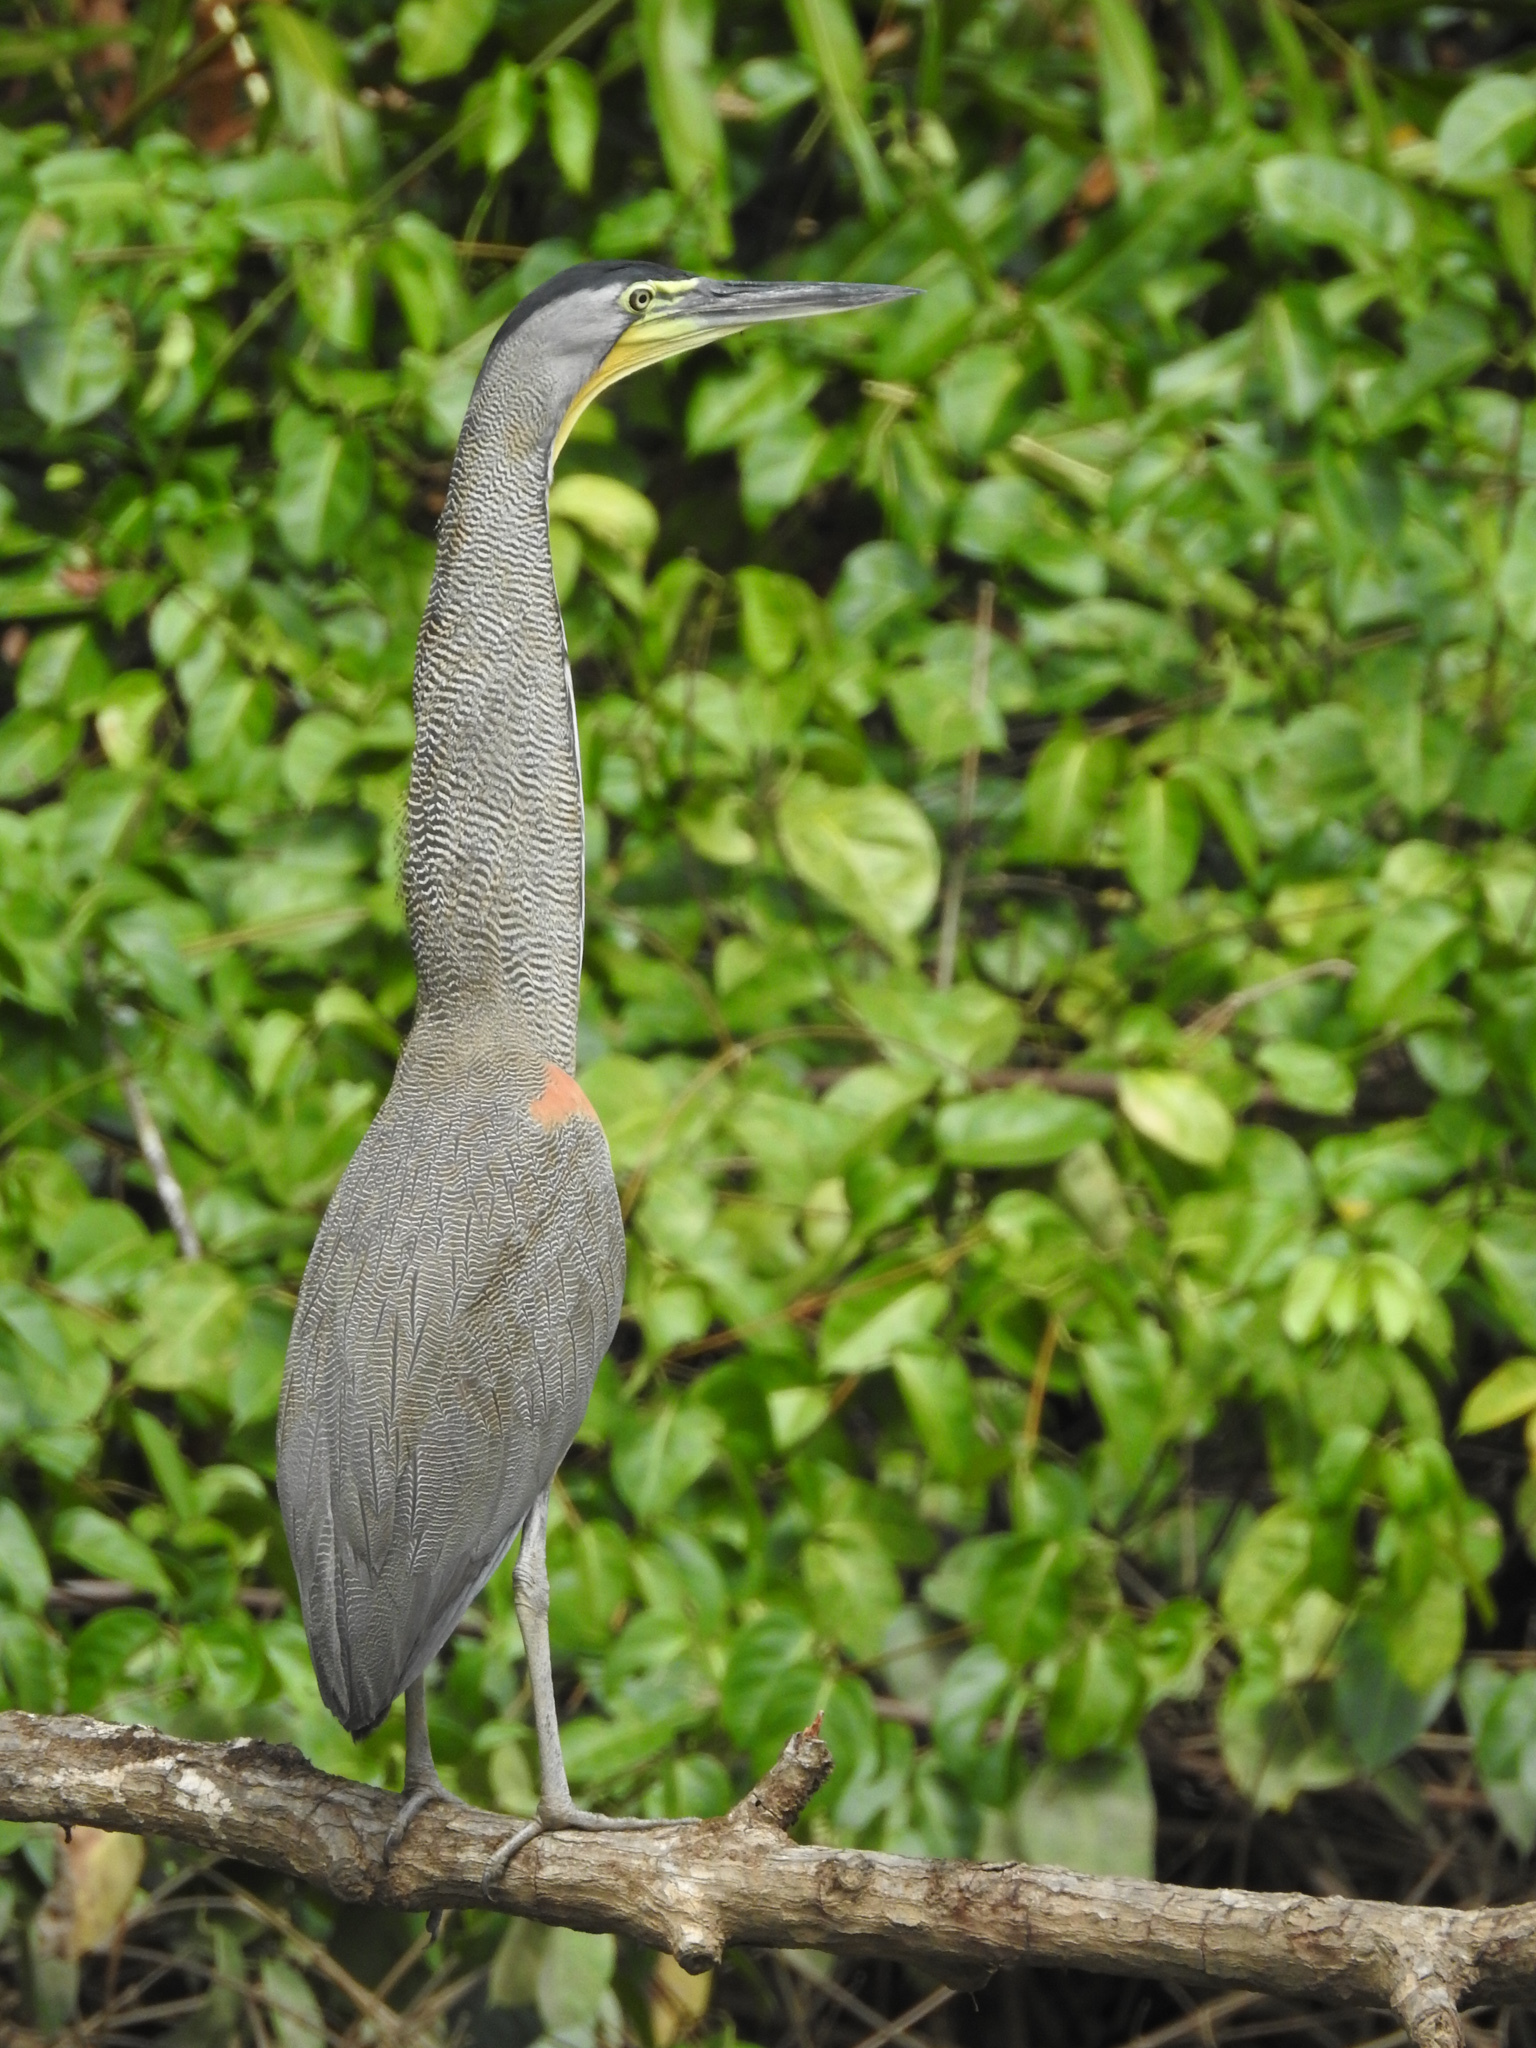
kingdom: Animalia
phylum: Chordata
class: Aves
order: Pelecaniformes
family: Ardeidae
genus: Tigrisoma
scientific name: Tigrisoma mexicanum
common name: Bare-throated tiger-heron
